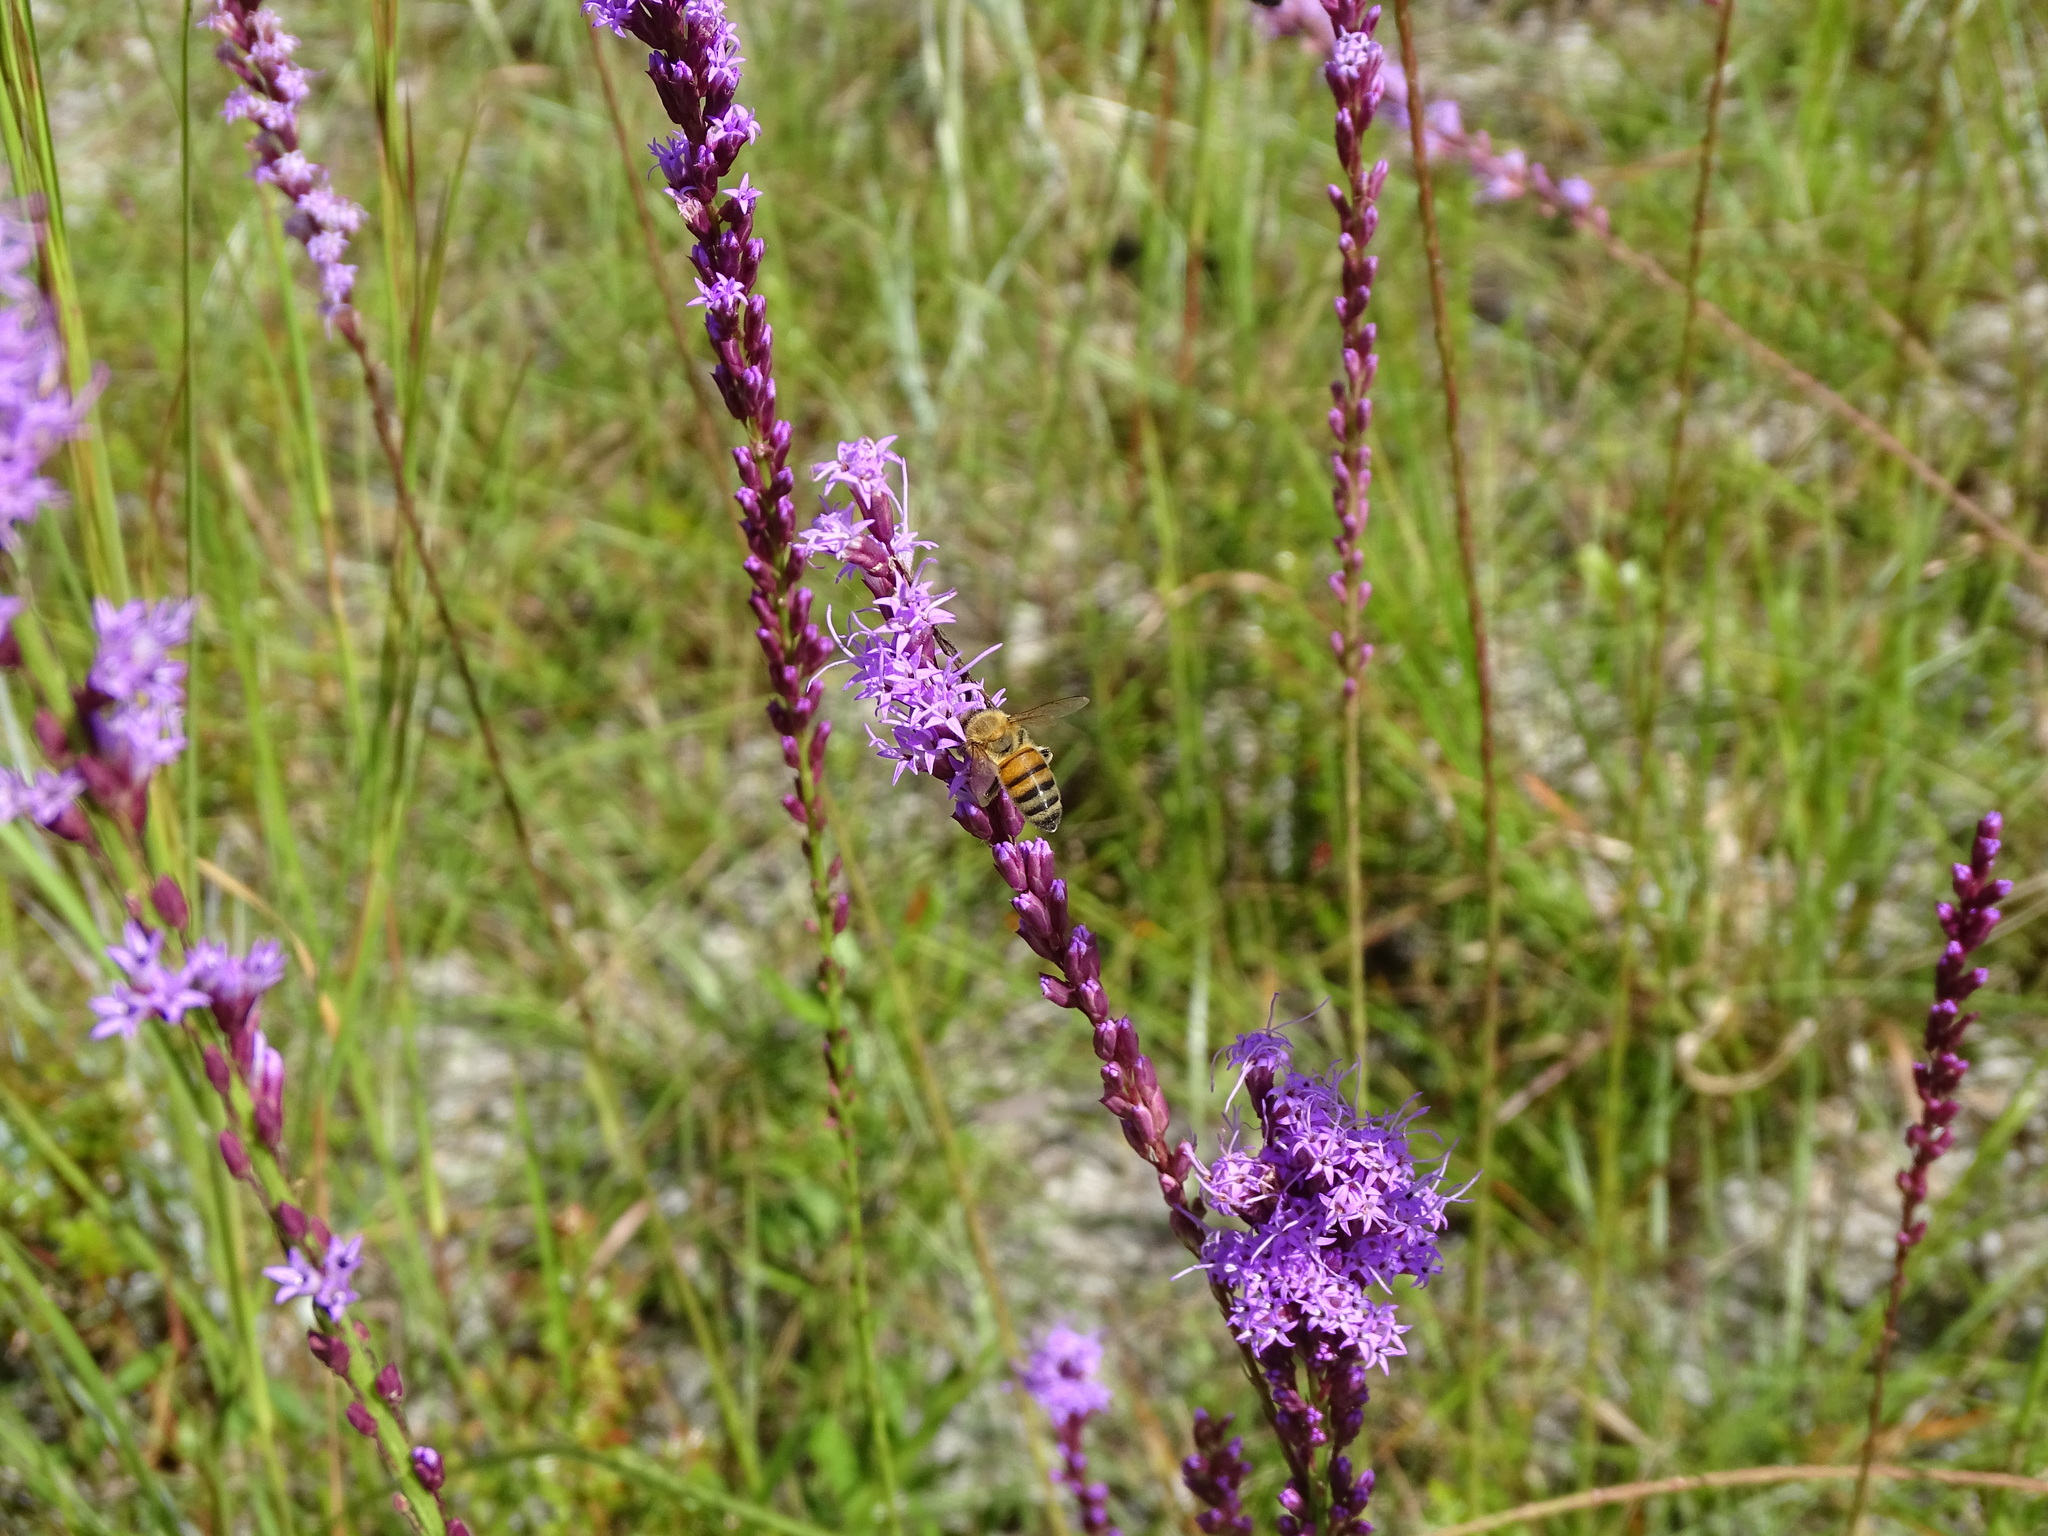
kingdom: Animalia
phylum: Arthropoda
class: Insecta
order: Hymenoptera
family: Apidae
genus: Apis
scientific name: Apis mellifera
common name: Honey bee
